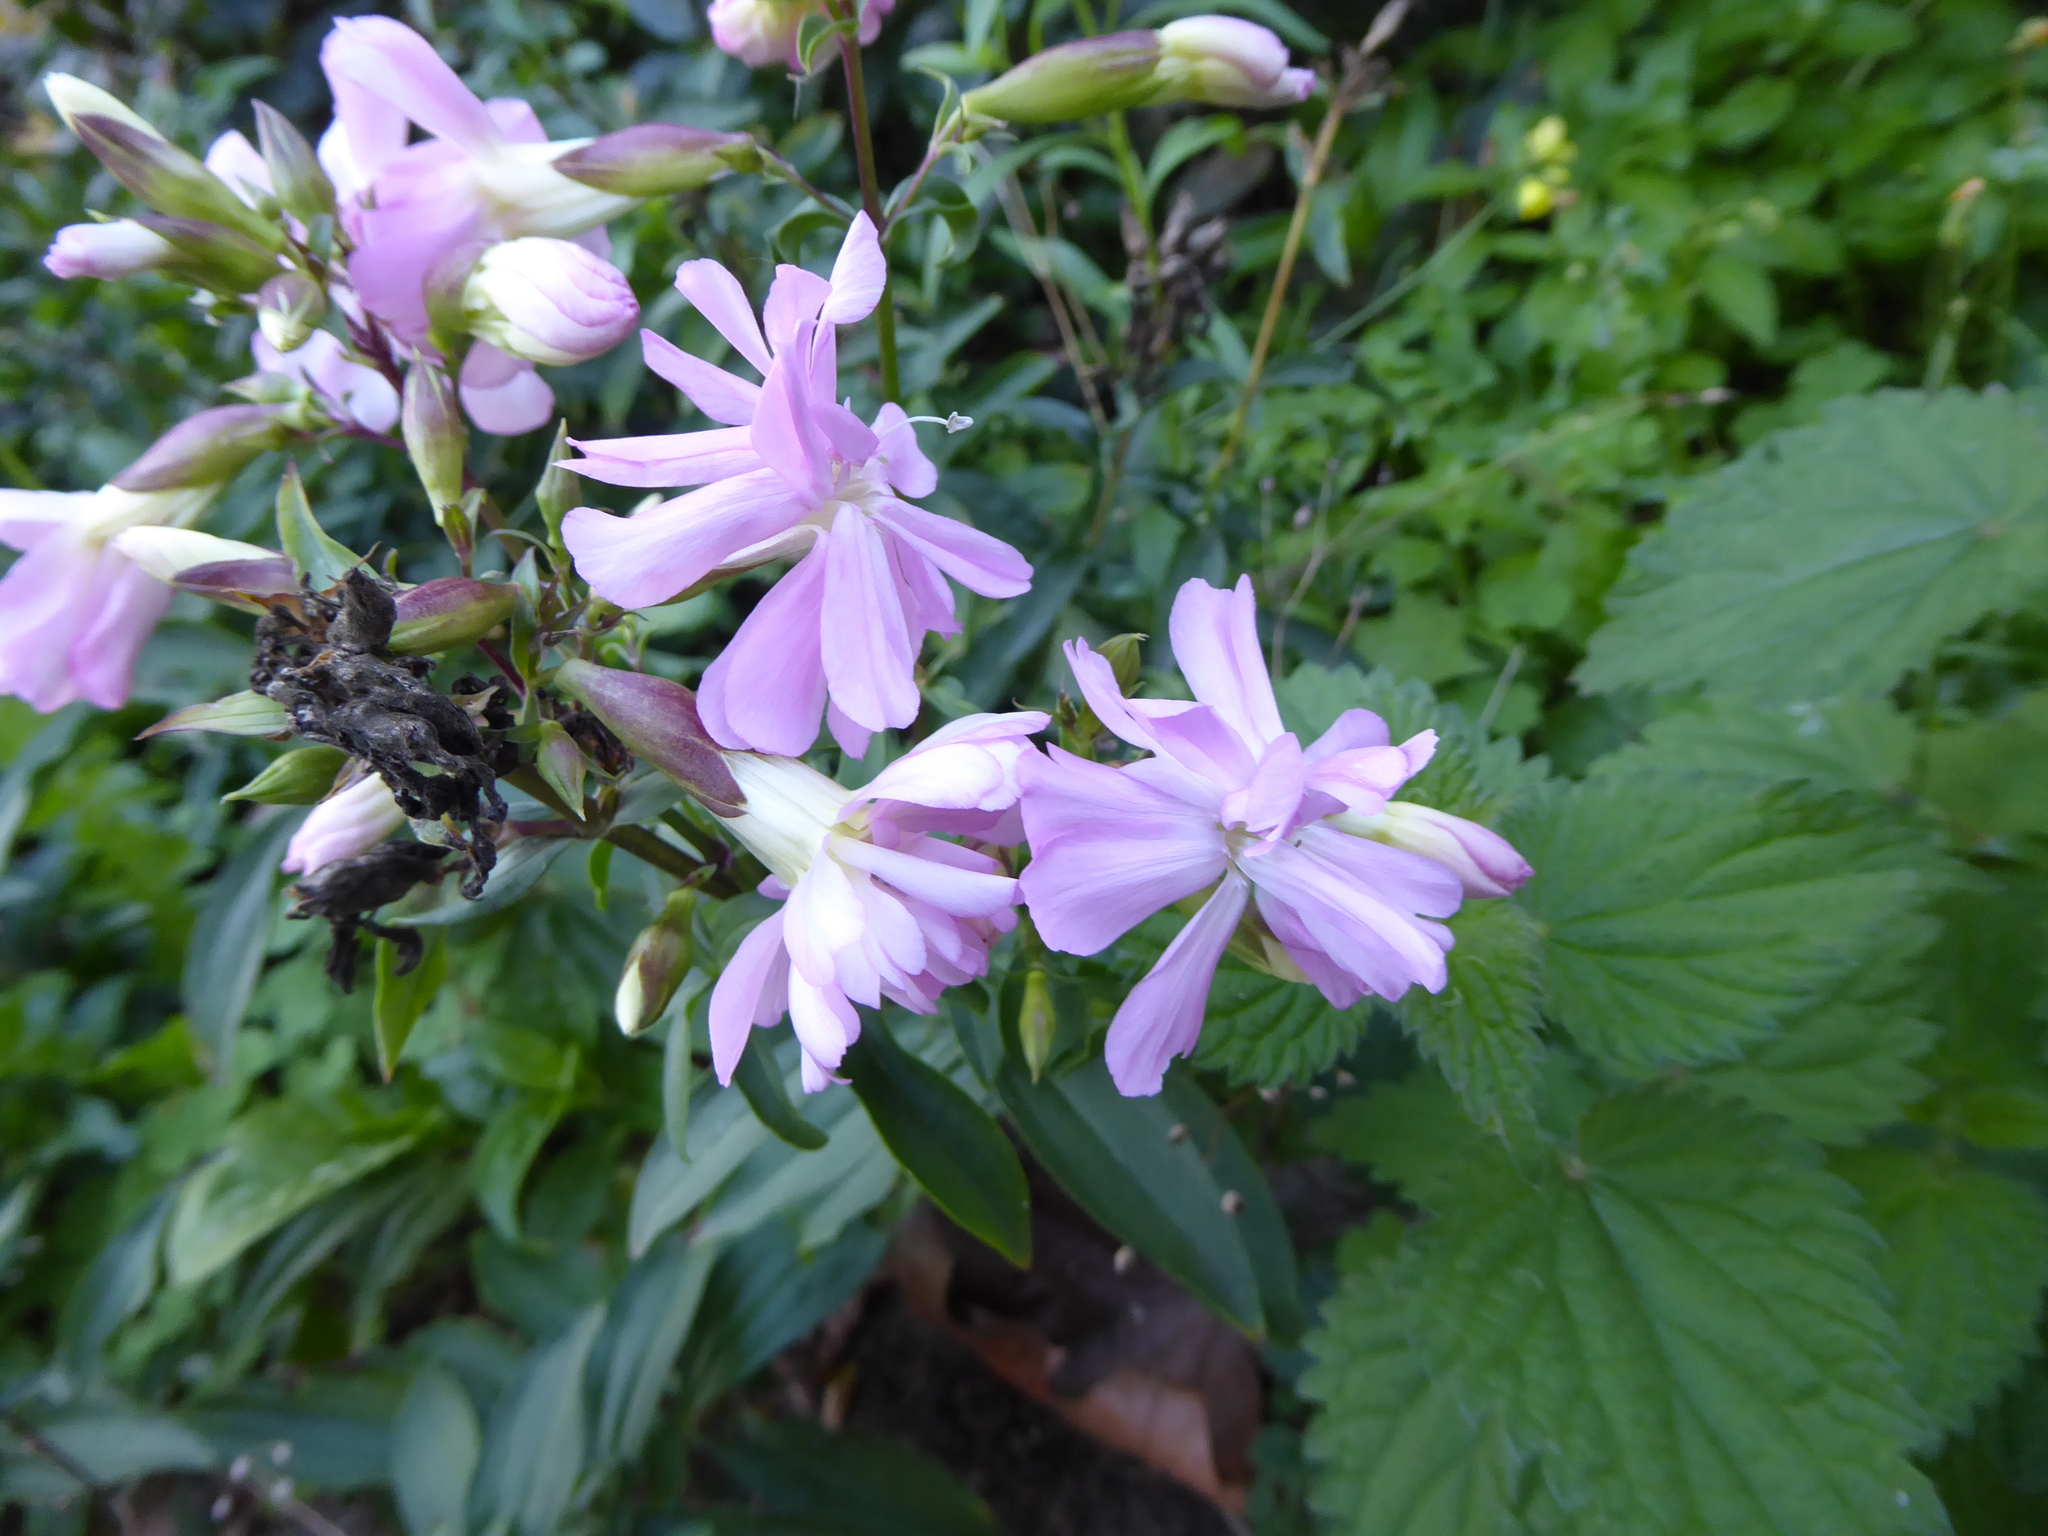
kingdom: Plantae
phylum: Tracheophyta
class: Magnoliopsida
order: Caryophyllales
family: Caryophyllaceae
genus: Saponaria
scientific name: Saponaria officinalis
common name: Soapwort
